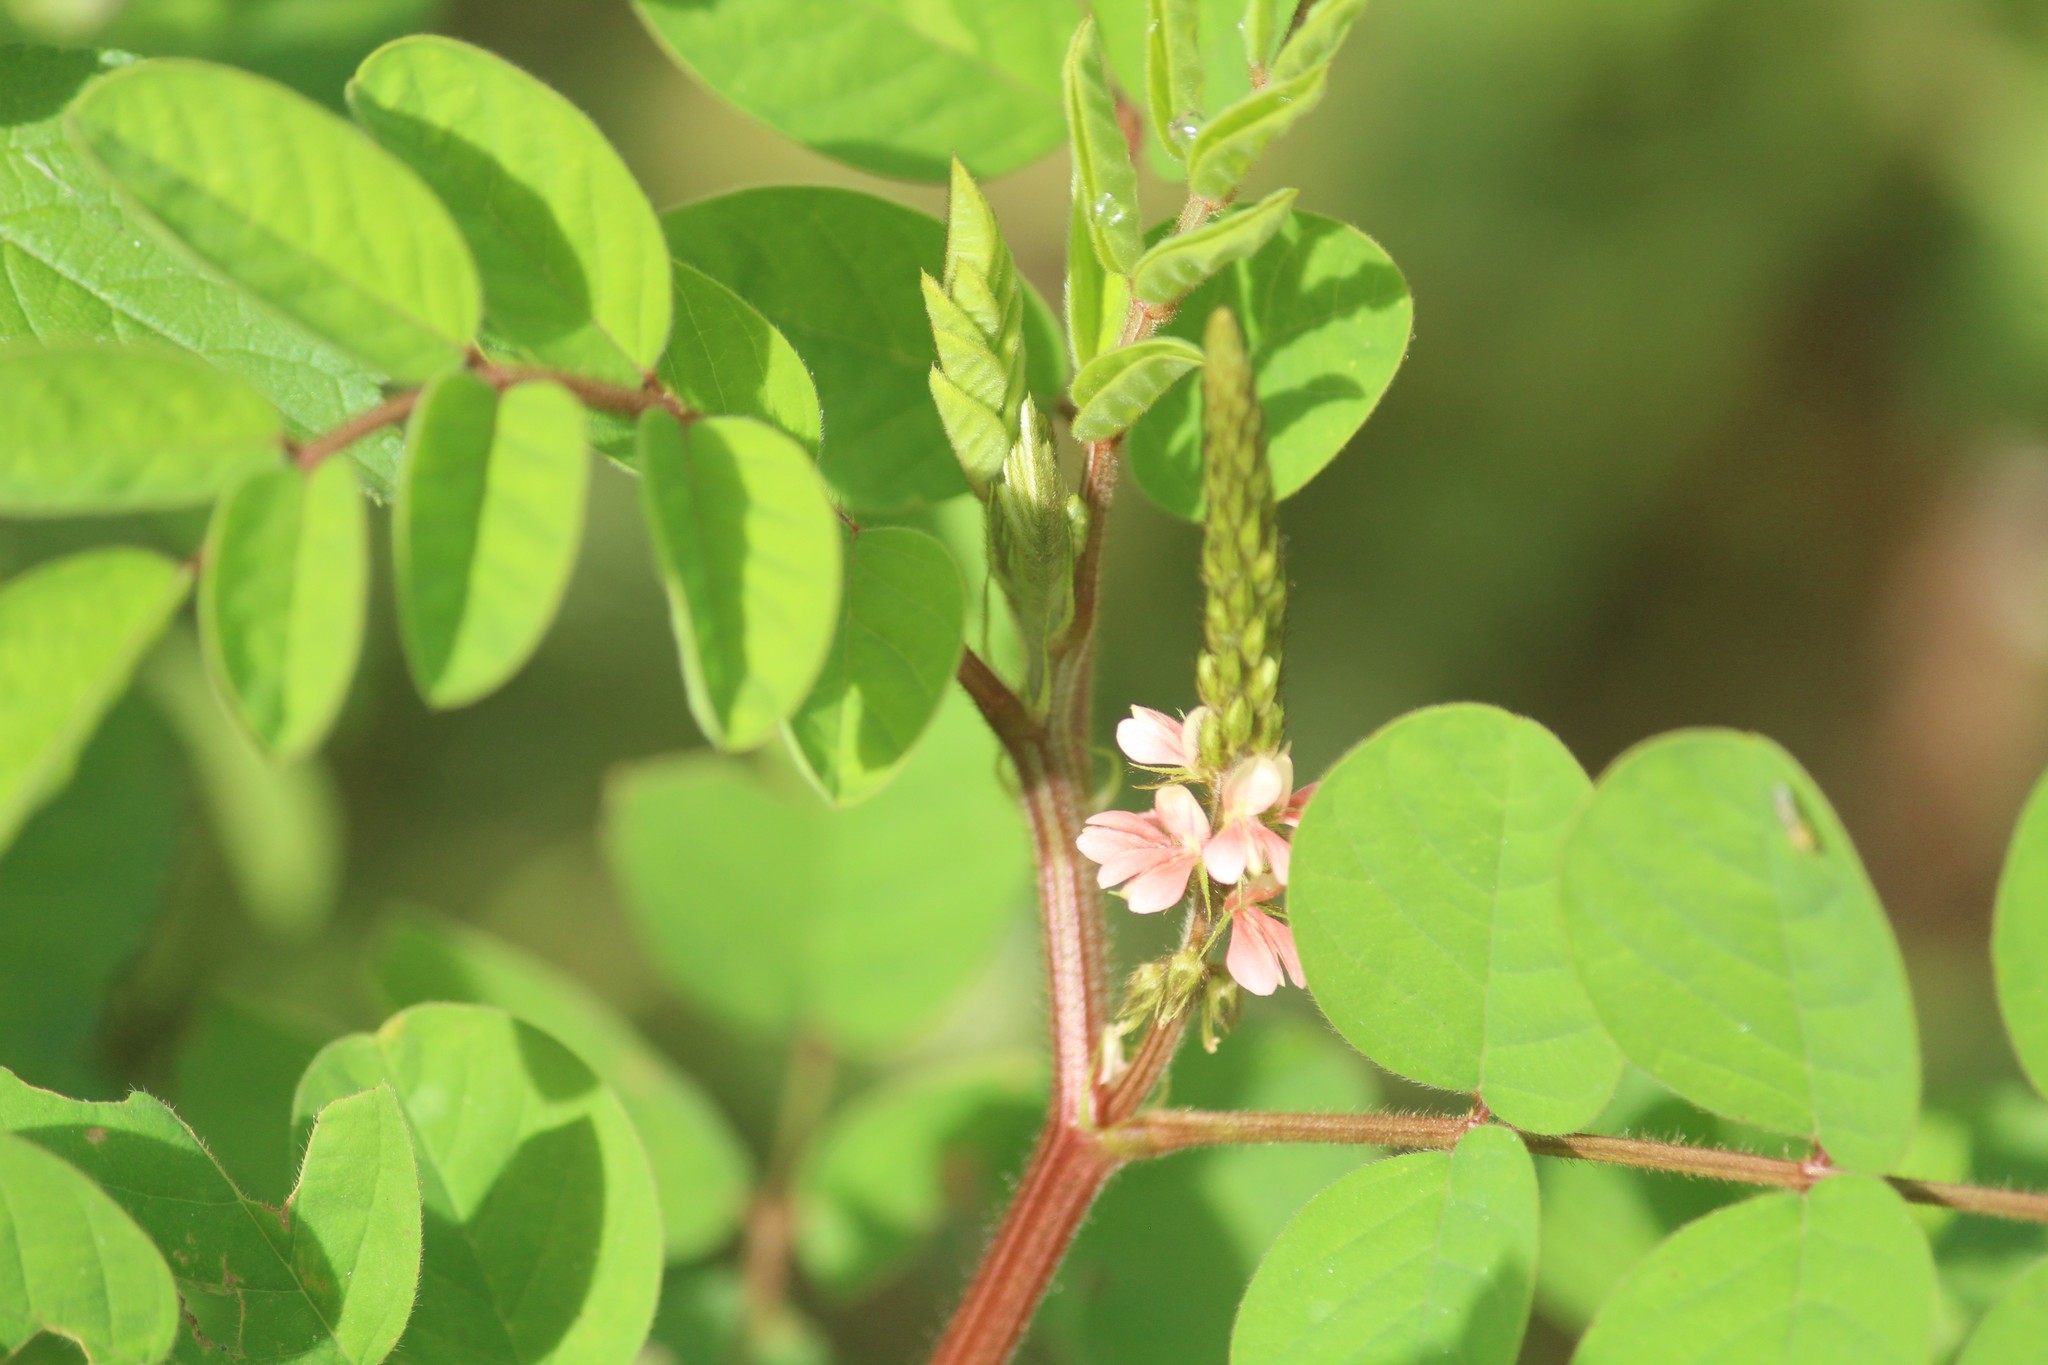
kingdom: Plantae
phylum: Tracheophyta
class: Magnoliopsida
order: Fabales
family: Fabaceae
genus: Indigofera
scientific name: Indigofera hirsuta
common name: Hairy indigo
